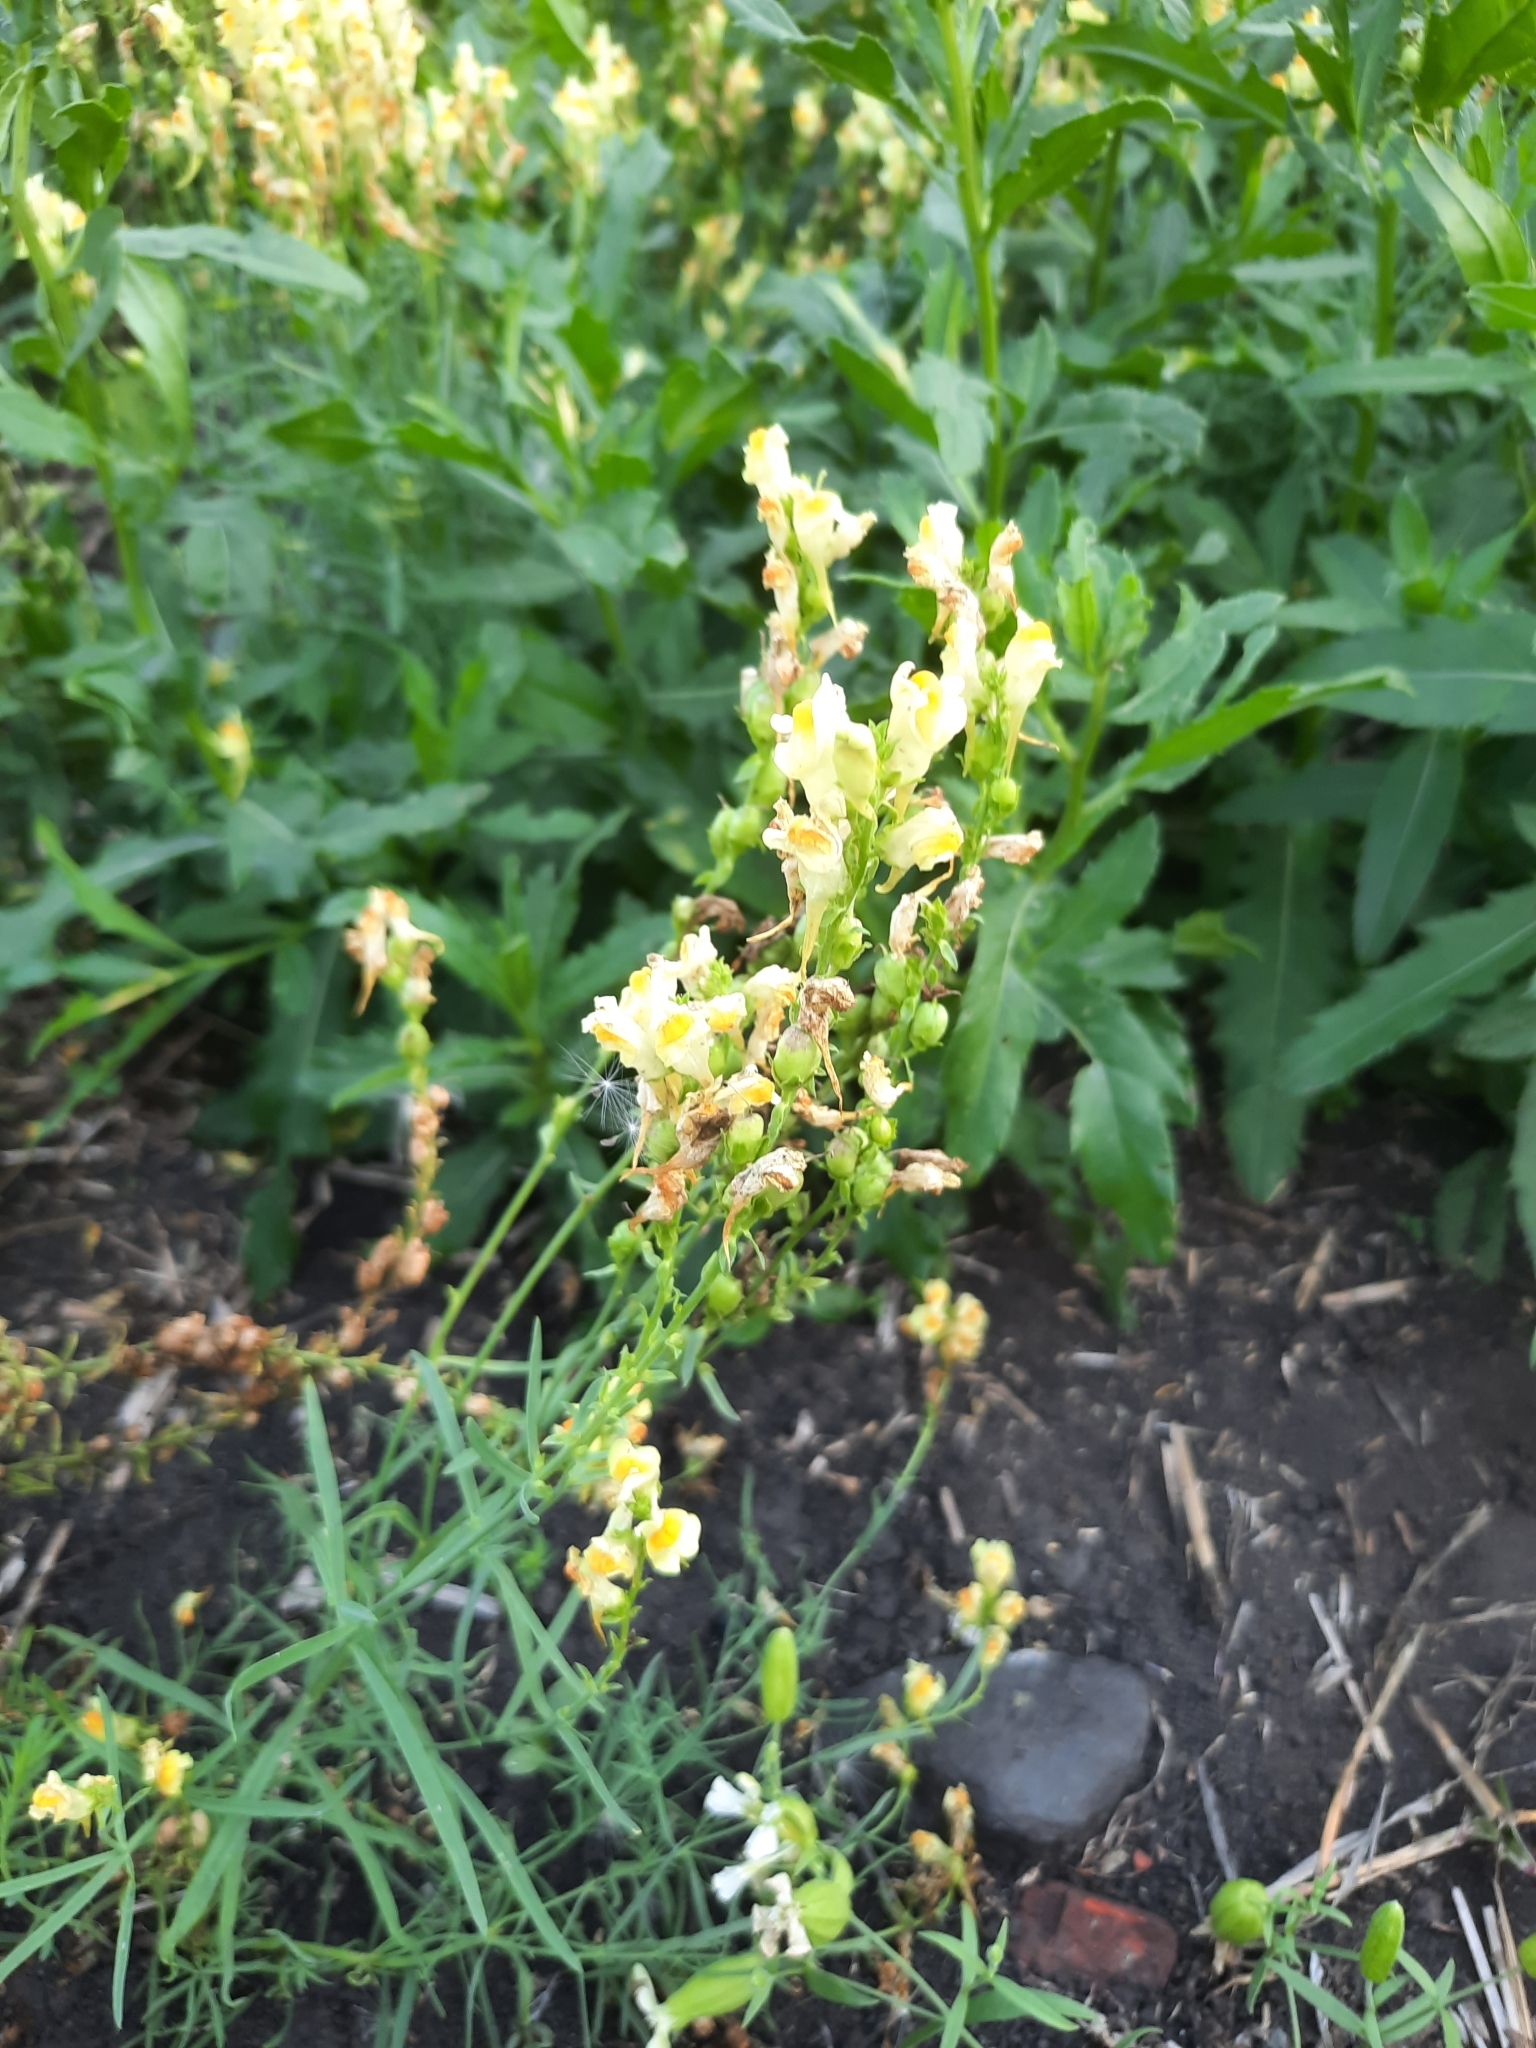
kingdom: Plantae
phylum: Tracheophyta
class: Magnoliopsida
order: Lamiales
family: Plantaginaceae
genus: Linaria
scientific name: Linaria vulgaris
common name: Butter and eggs
